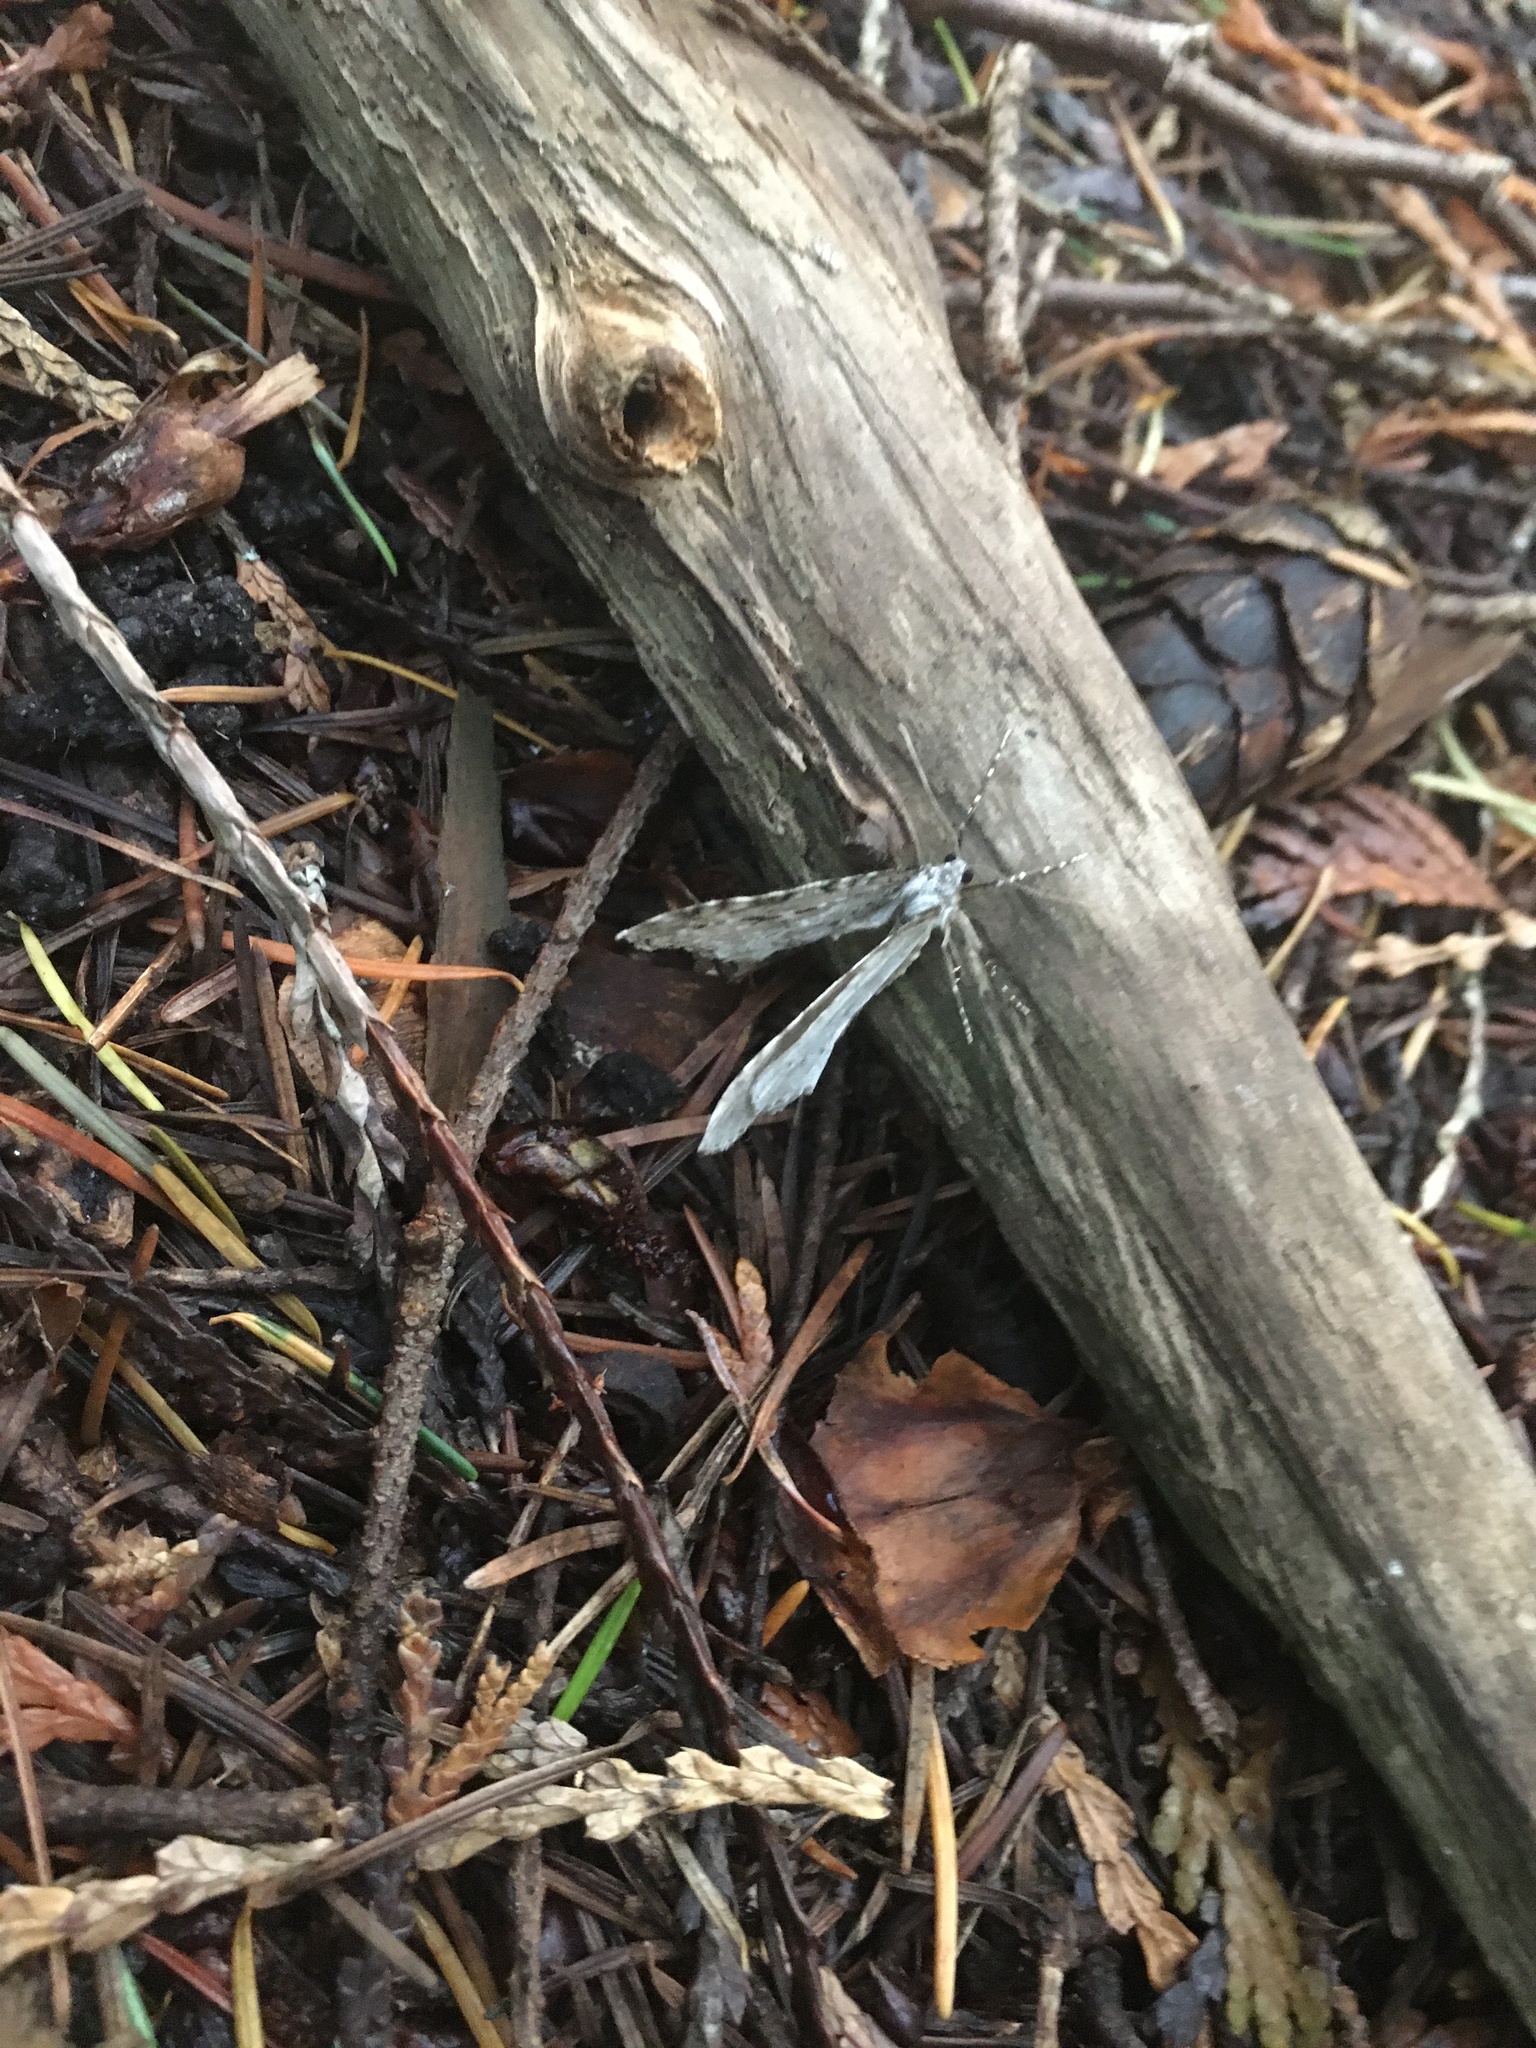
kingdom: Animalia
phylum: Arthropoda
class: Insecta
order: Lepidoptera
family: Geometridae
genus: Epirrita
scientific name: Epirrita autumnata
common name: Autumnal moth
